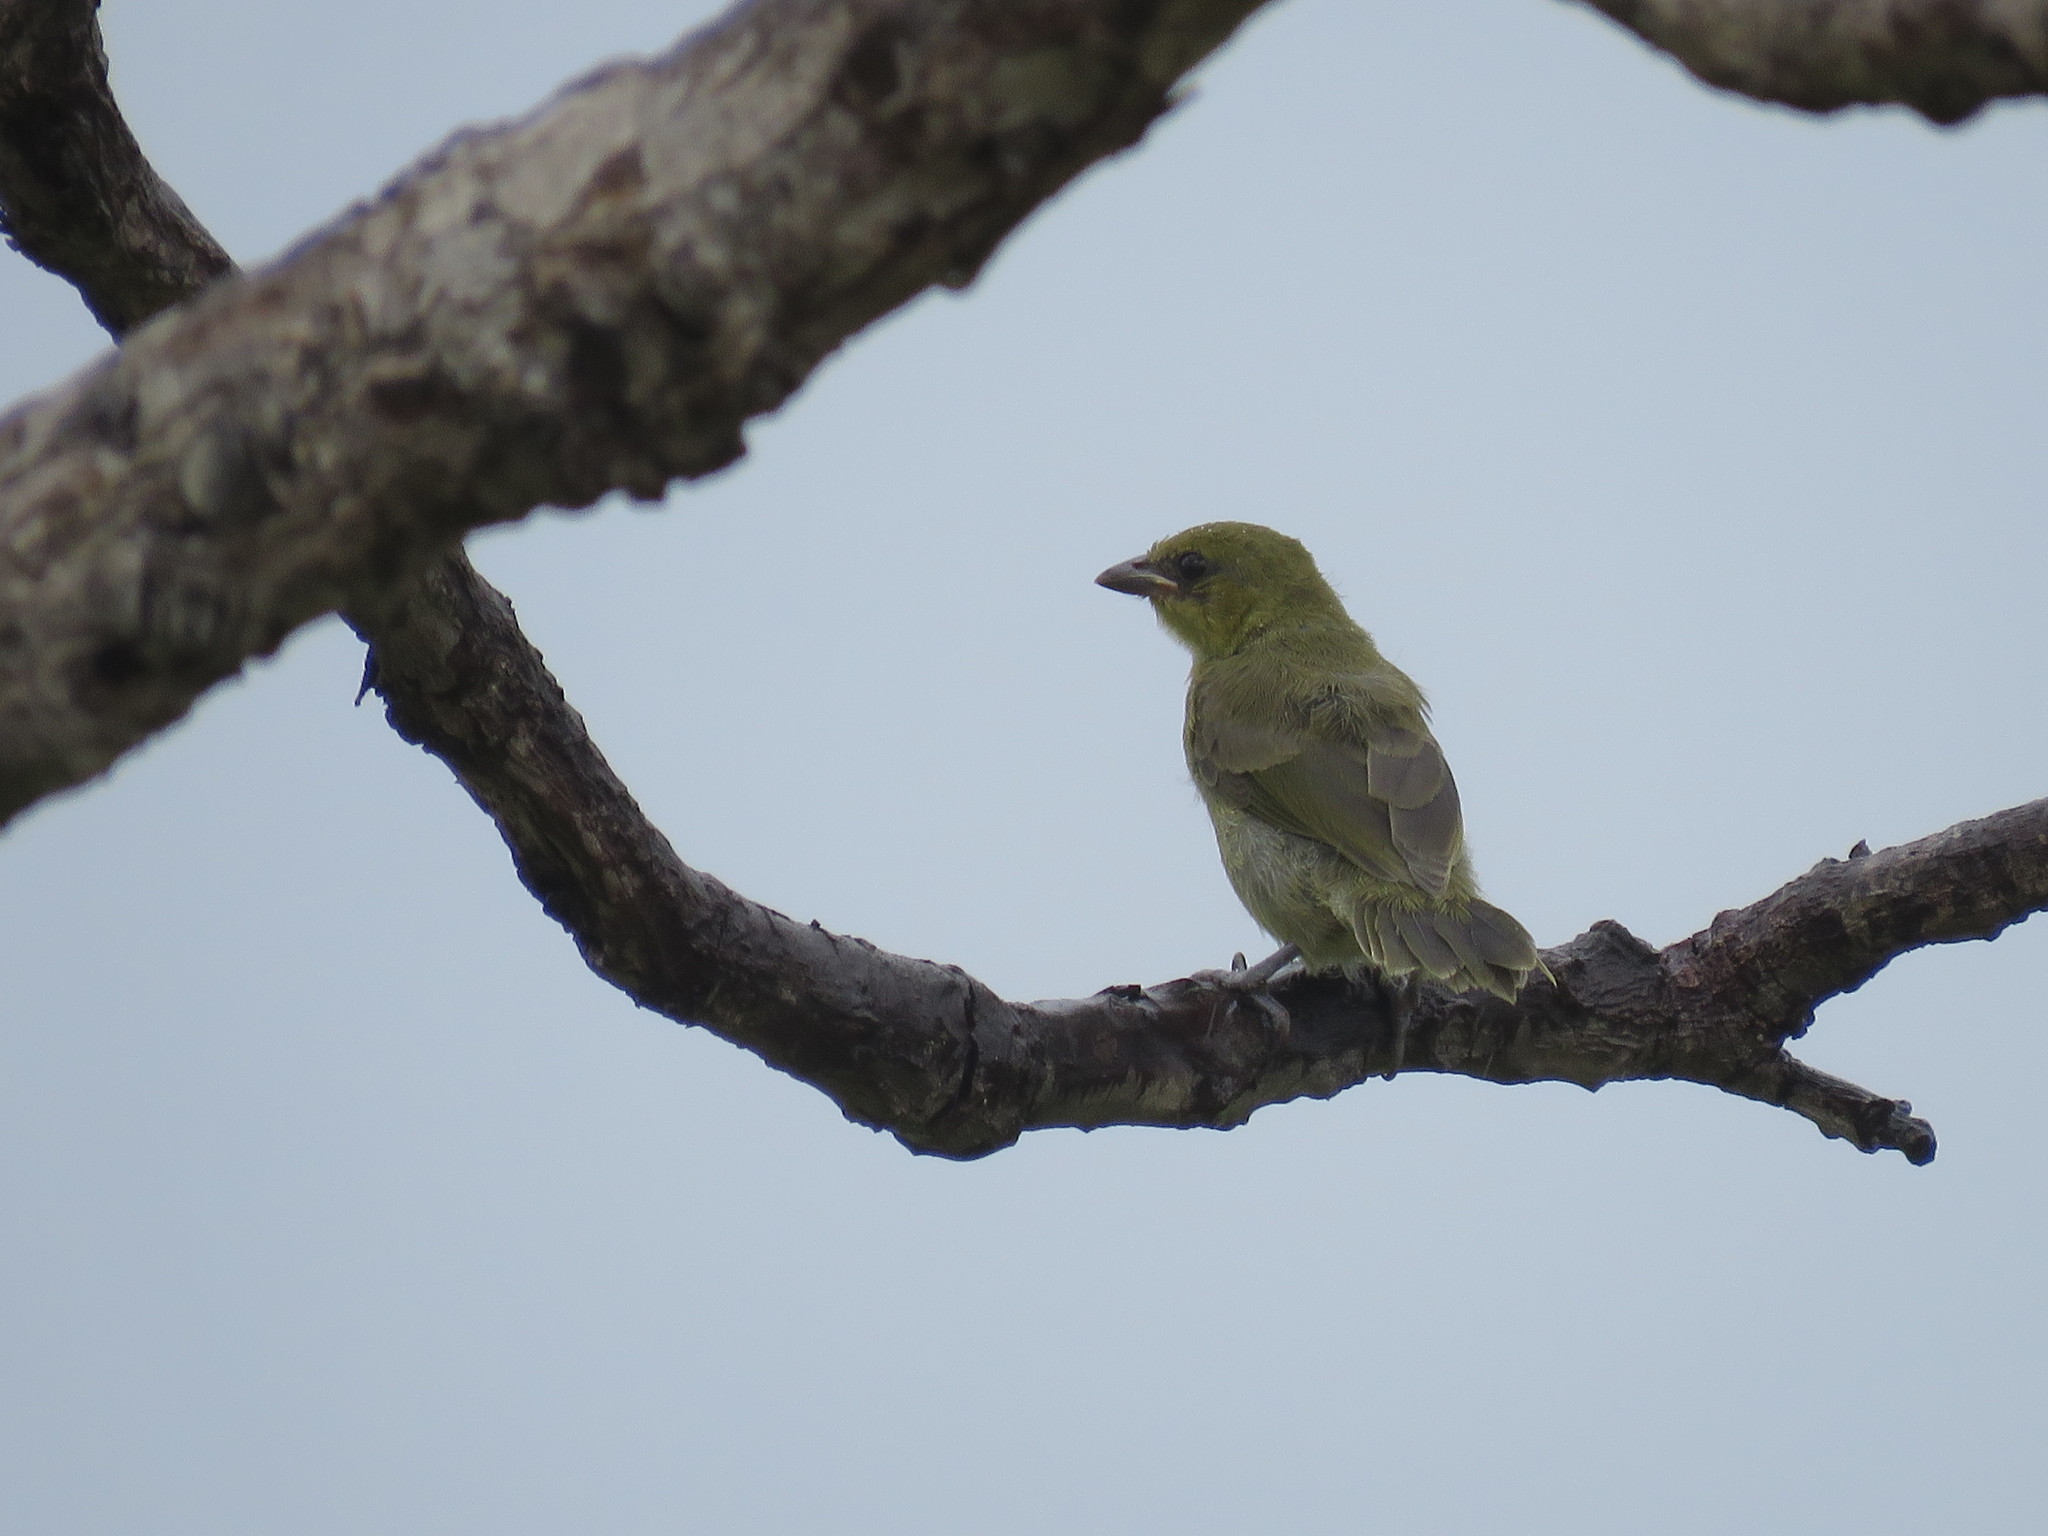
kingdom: Animalia
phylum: Chordata
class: Aves
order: Passeriformes
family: Thraupidae
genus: Embernagra
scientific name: Embernagra platensis
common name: Pampa finch
